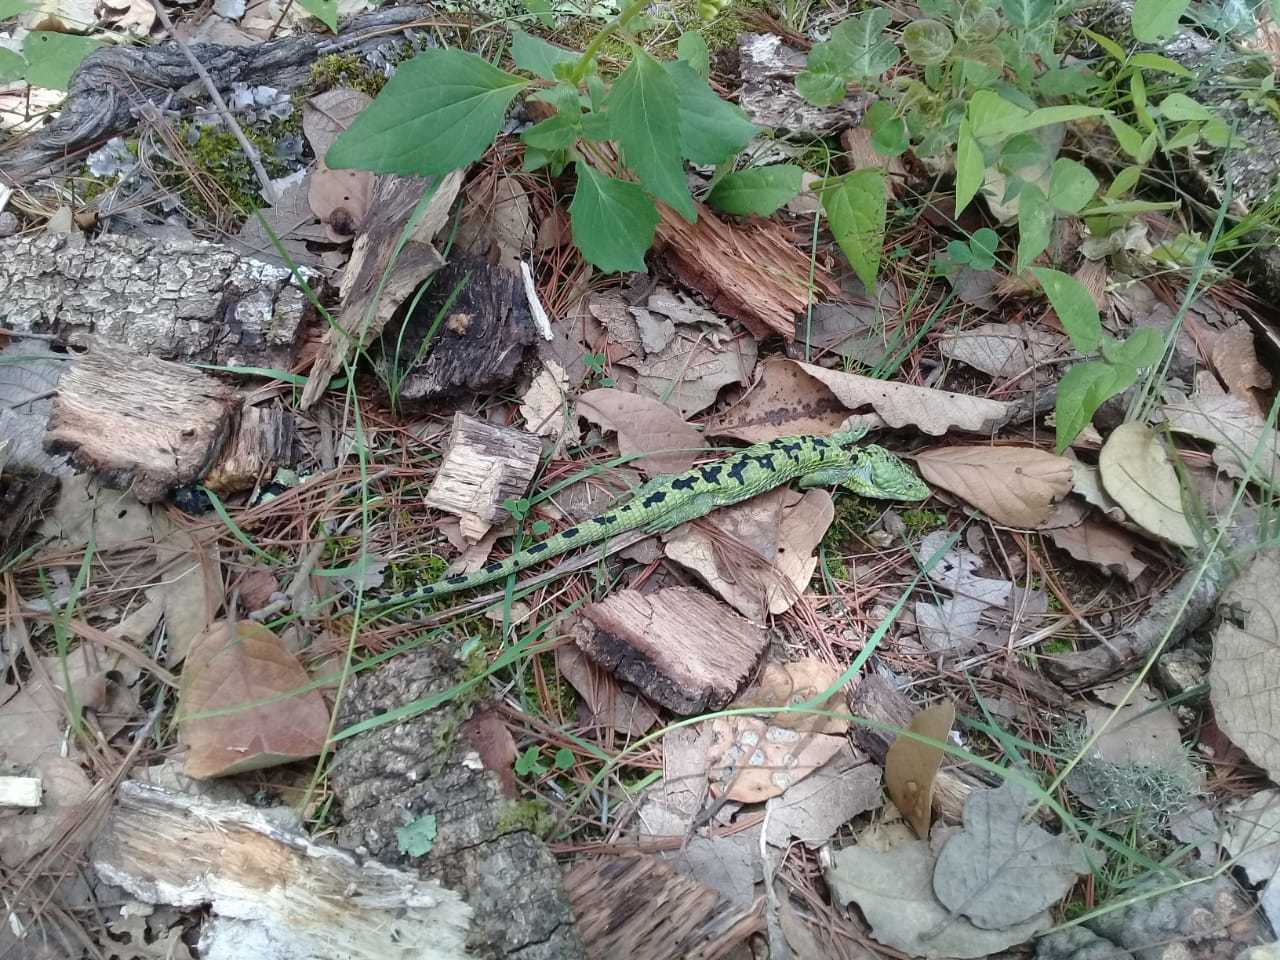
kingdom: Animalia
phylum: Chordata
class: Squamata
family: Anguidae
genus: Abronia
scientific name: Abronia mixteca
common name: Mixtecan arboreal alligator lizard
